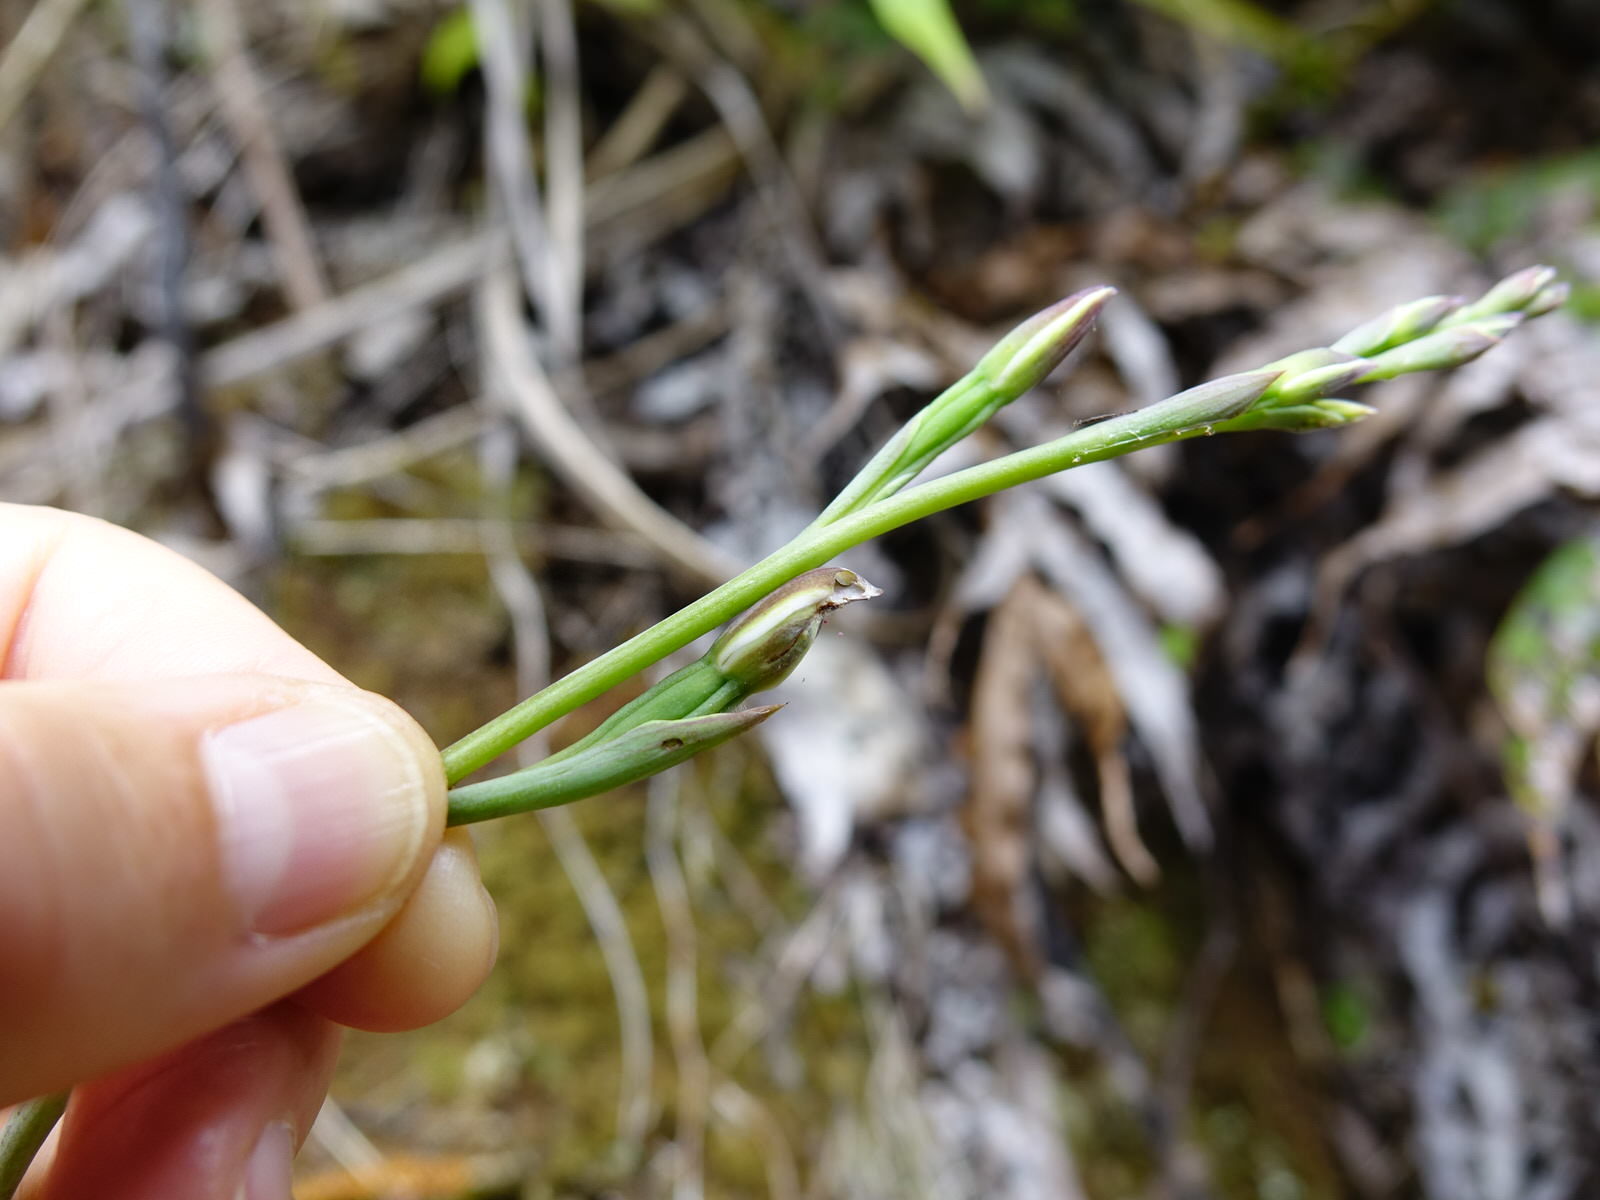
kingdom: Plantae
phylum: Tracheophyta
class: Liliopsida
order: Asparagales
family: Orchidaceae
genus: Thelymitra
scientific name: Thelymitra longifolia
